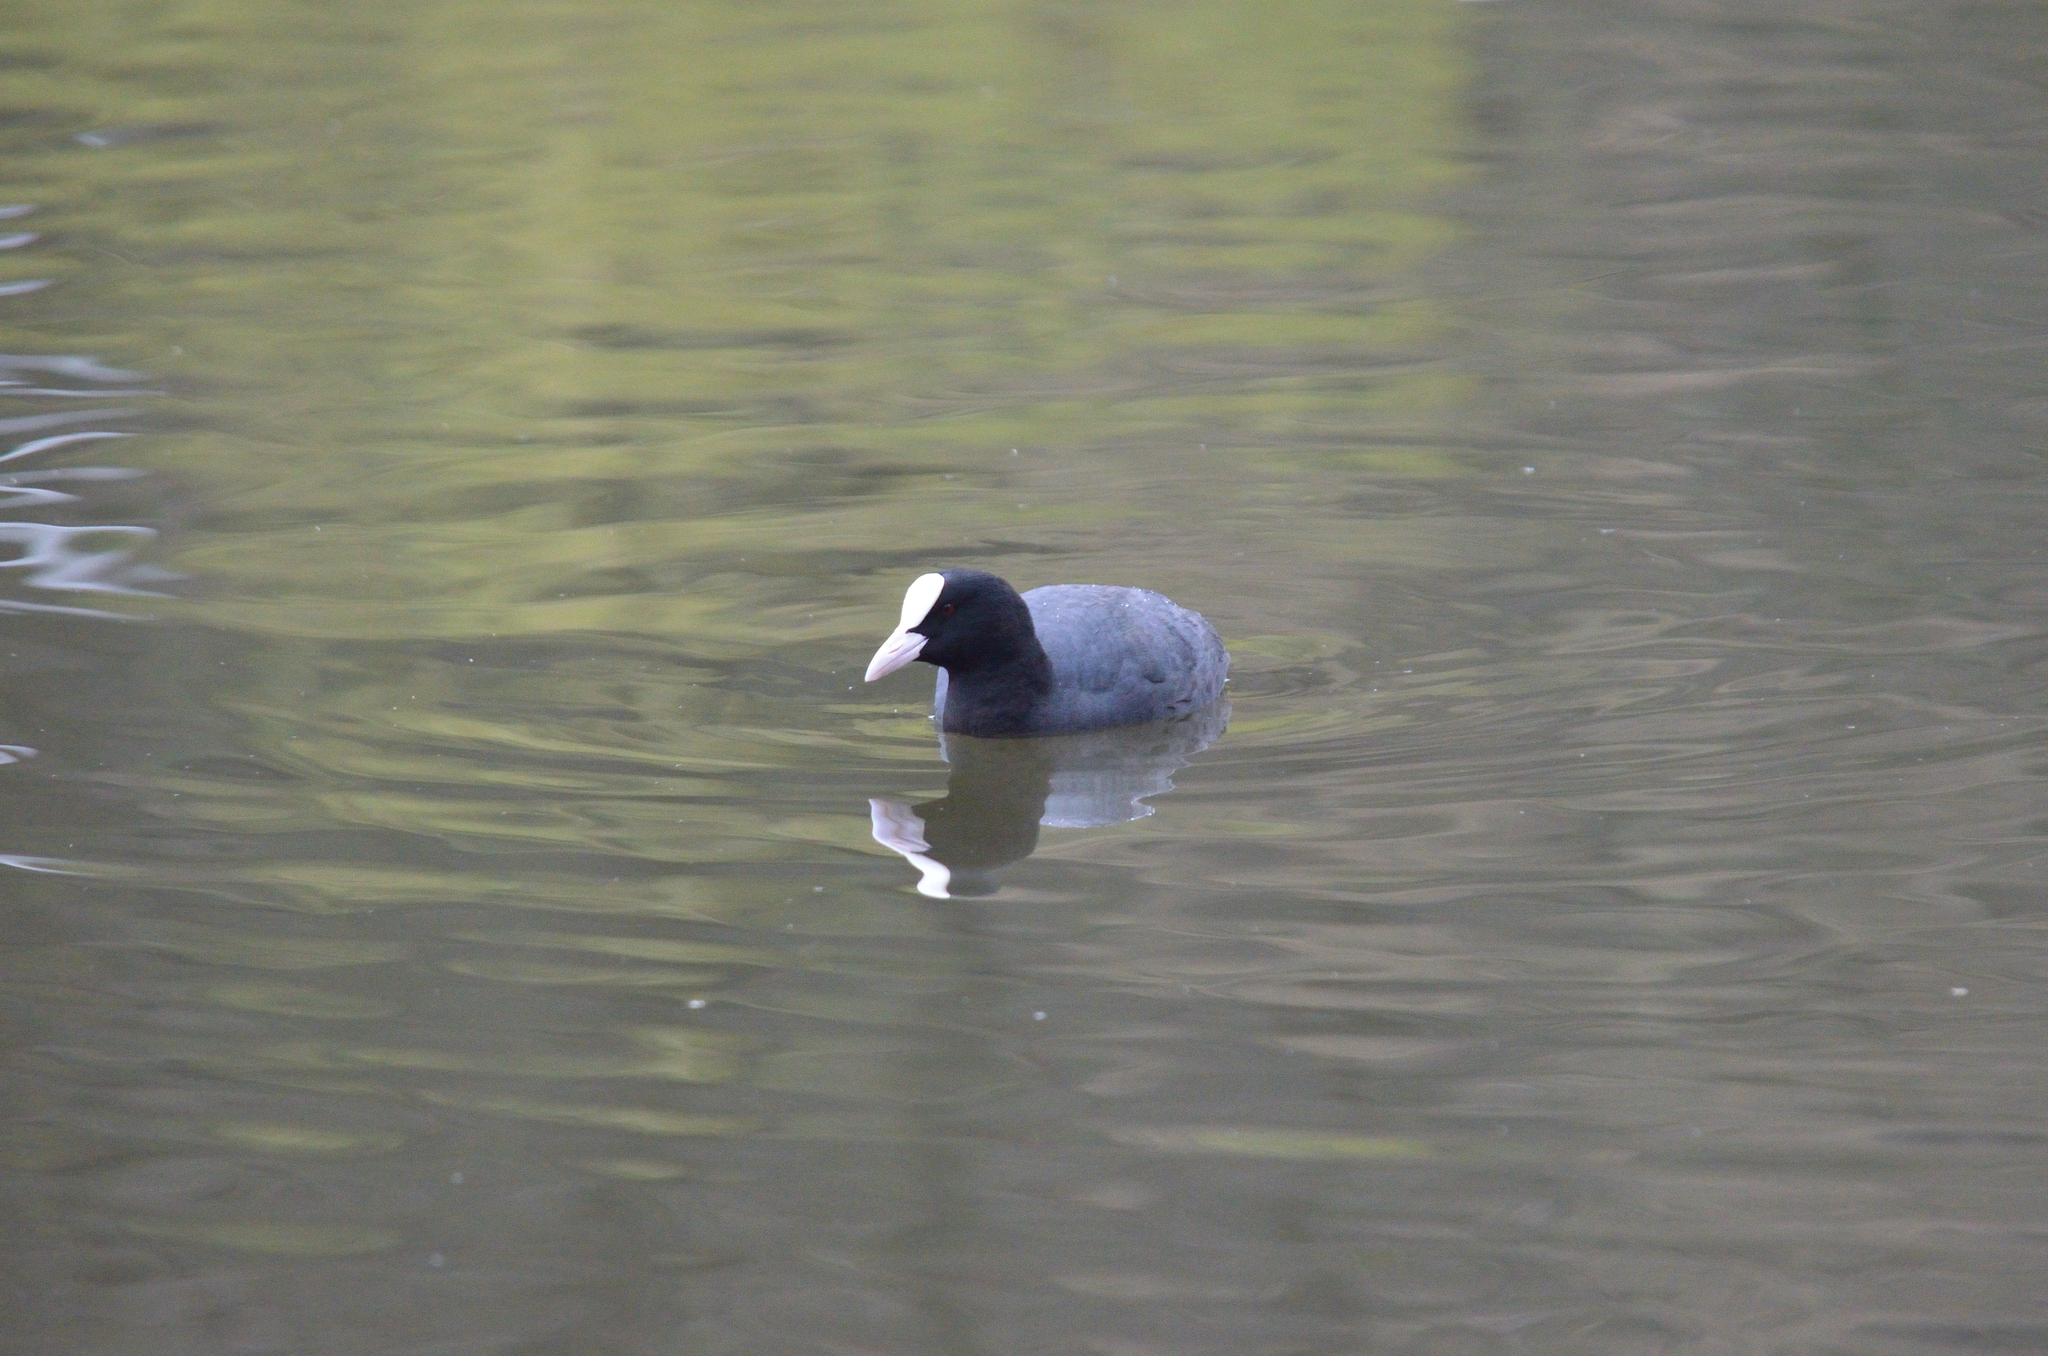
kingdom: Animalia
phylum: Chordata
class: Aves
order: Gruiformes
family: Rallidae
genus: Fulica
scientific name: Fulica atra
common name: Eurasian coot
